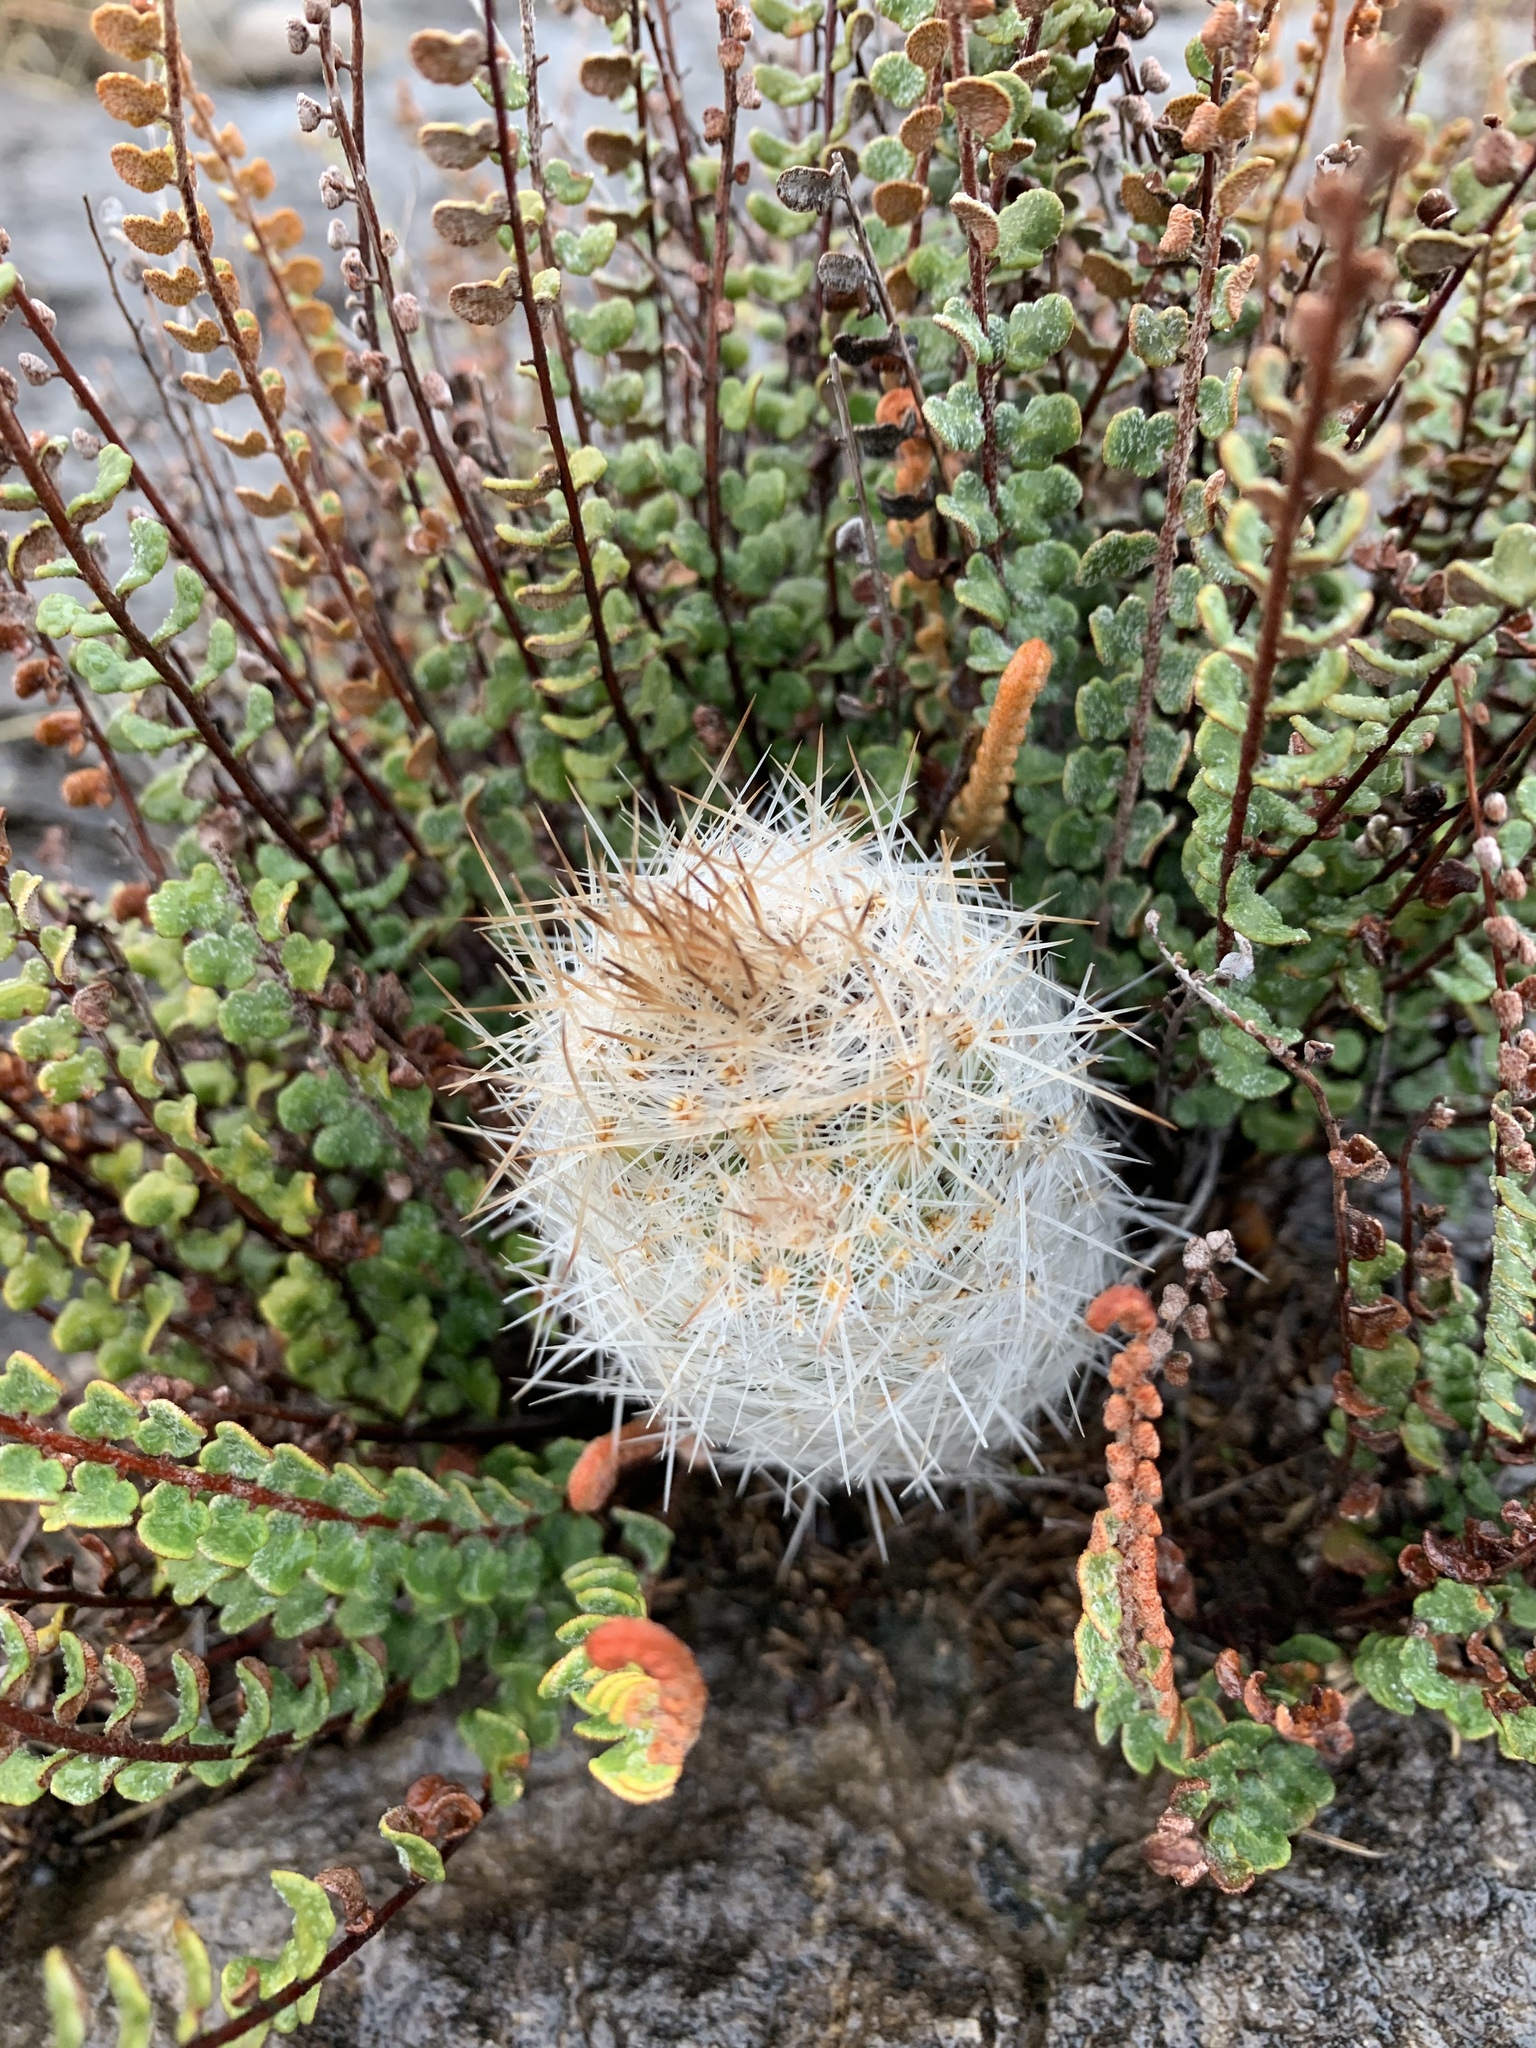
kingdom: Plantae
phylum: Tracheophyta
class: Magnoliopsida
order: Caryophyllales
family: Cactaceae
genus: Pelecyphora
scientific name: Pelecyphora tuberculosa
